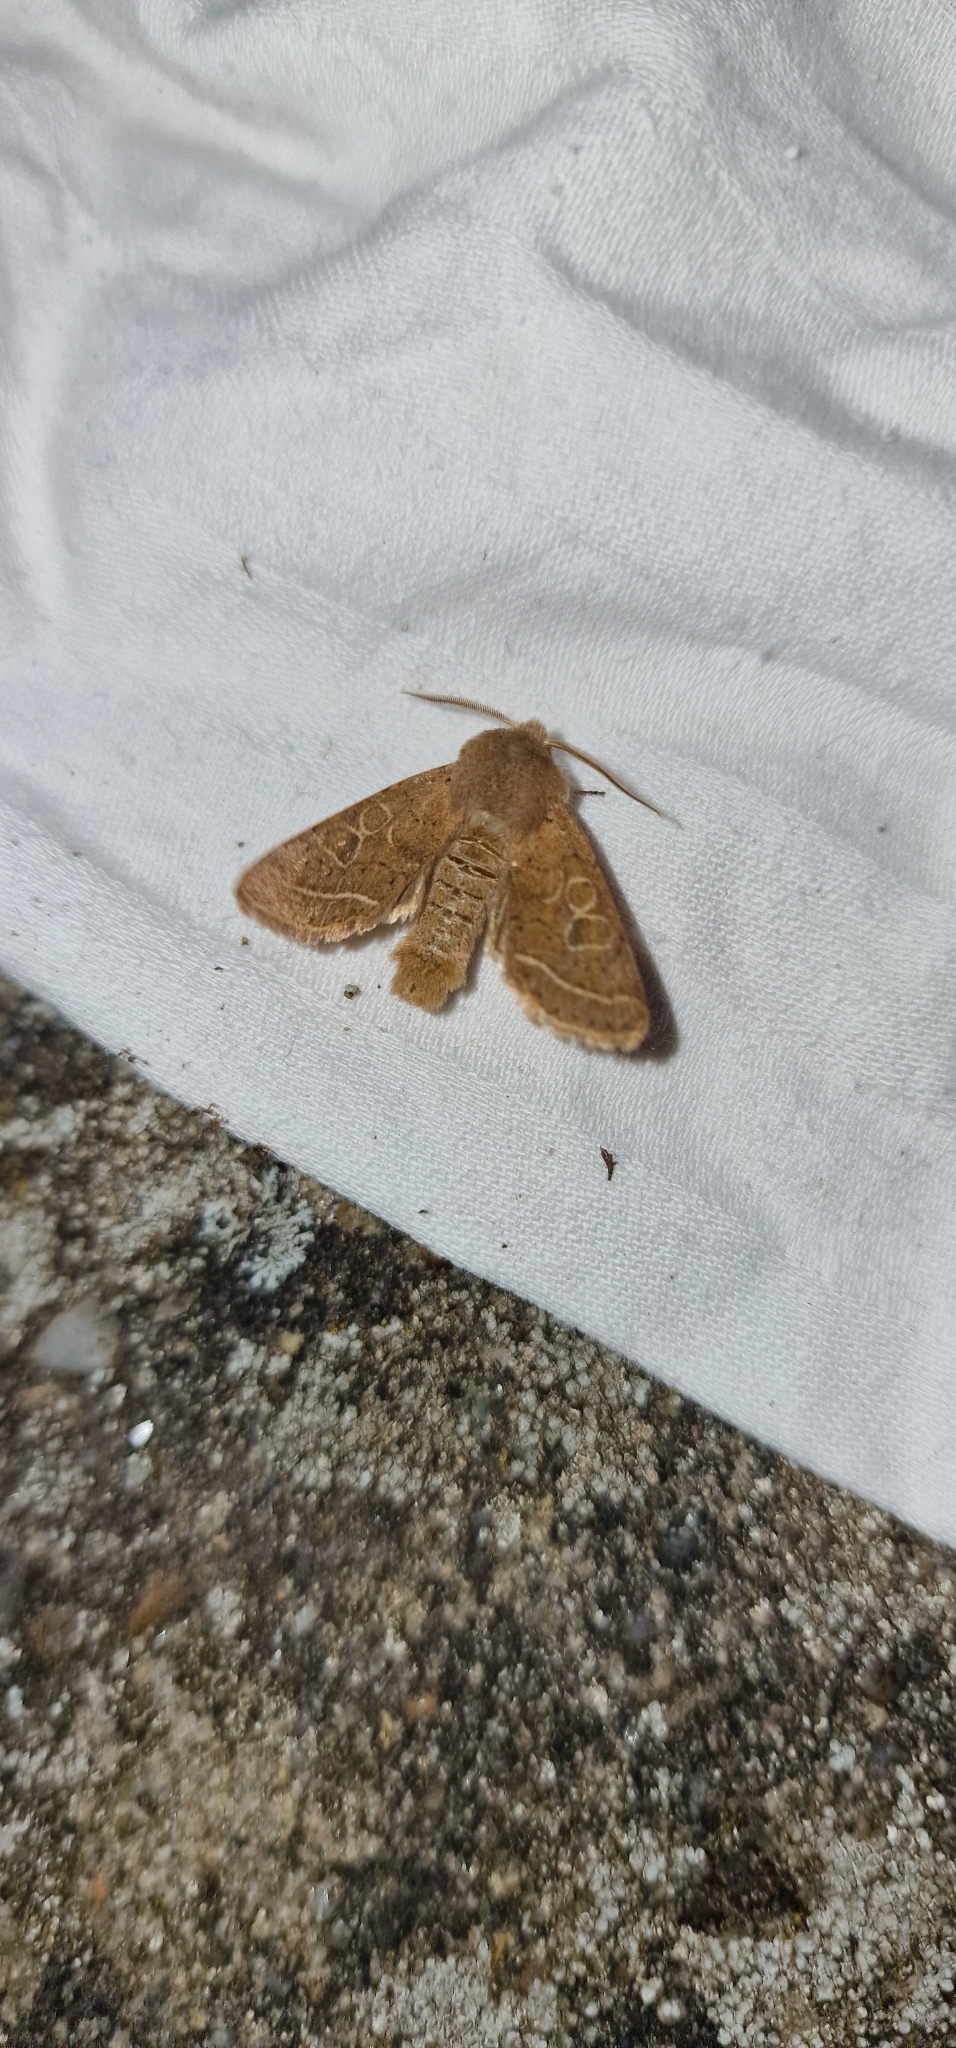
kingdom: Animalia
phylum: Arthropoda
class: Insecta
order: Lepidoptera
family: Noctuidae
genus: Orthosia
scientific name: Orthosia cerasi
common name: Common quaker
